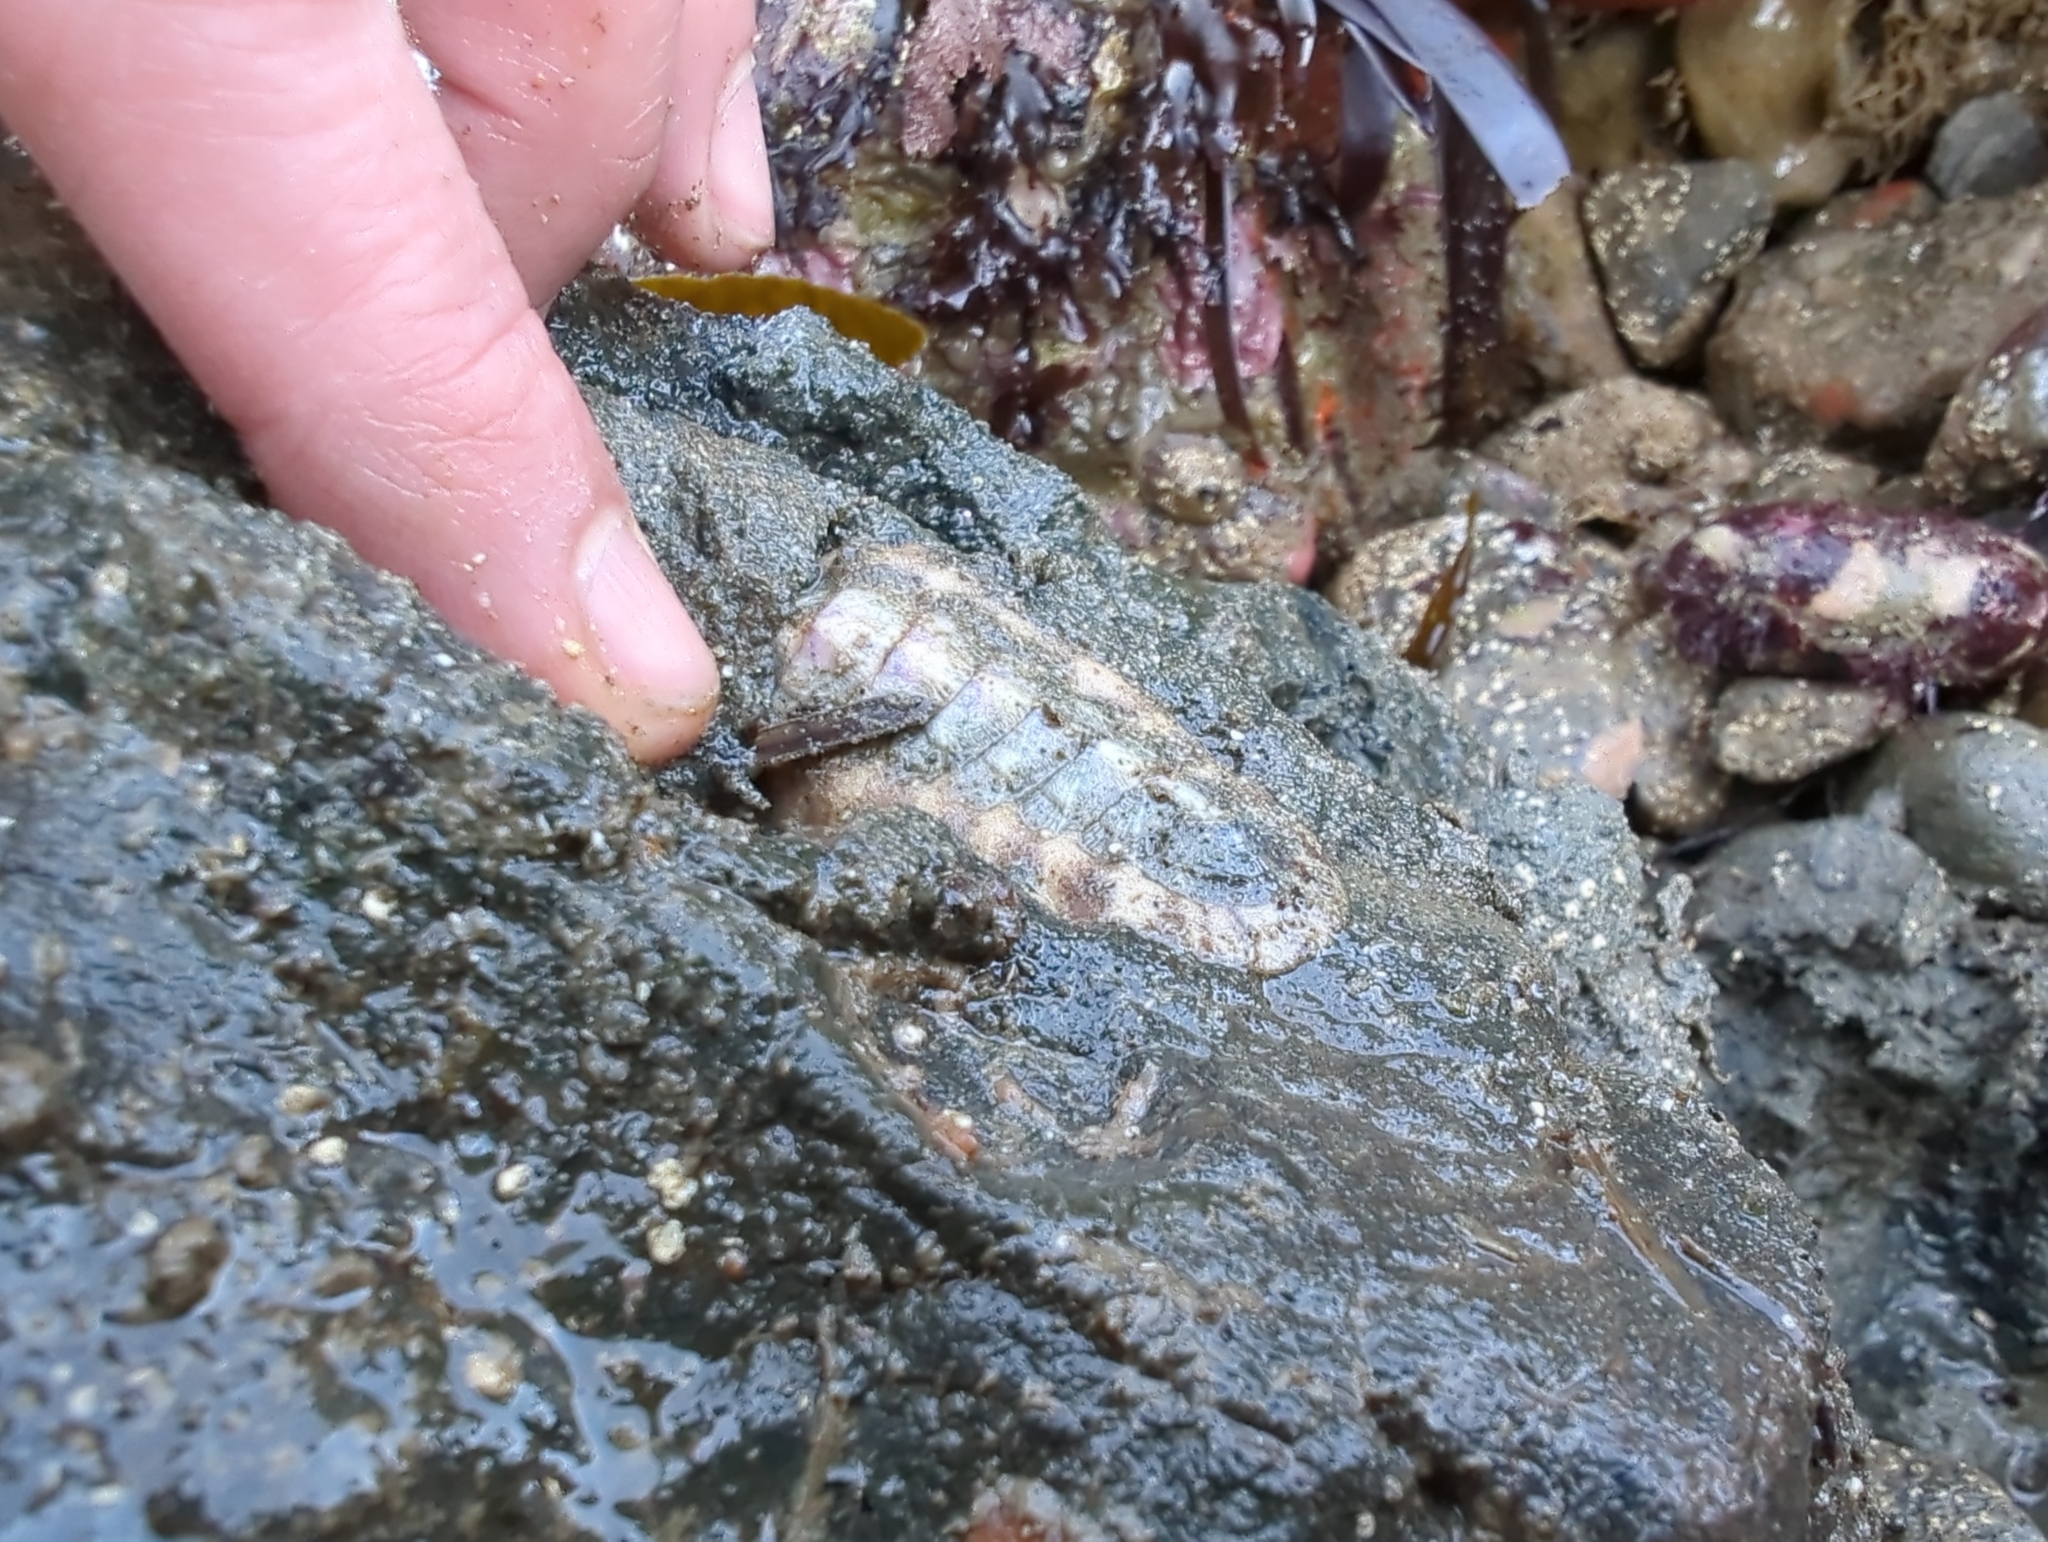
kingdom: Animalia
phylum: Mollusca
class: Polyplacophora
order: Chitonida
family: Ischnochitonidae
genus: Stenoplax
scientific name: Stenoplax heathiana
